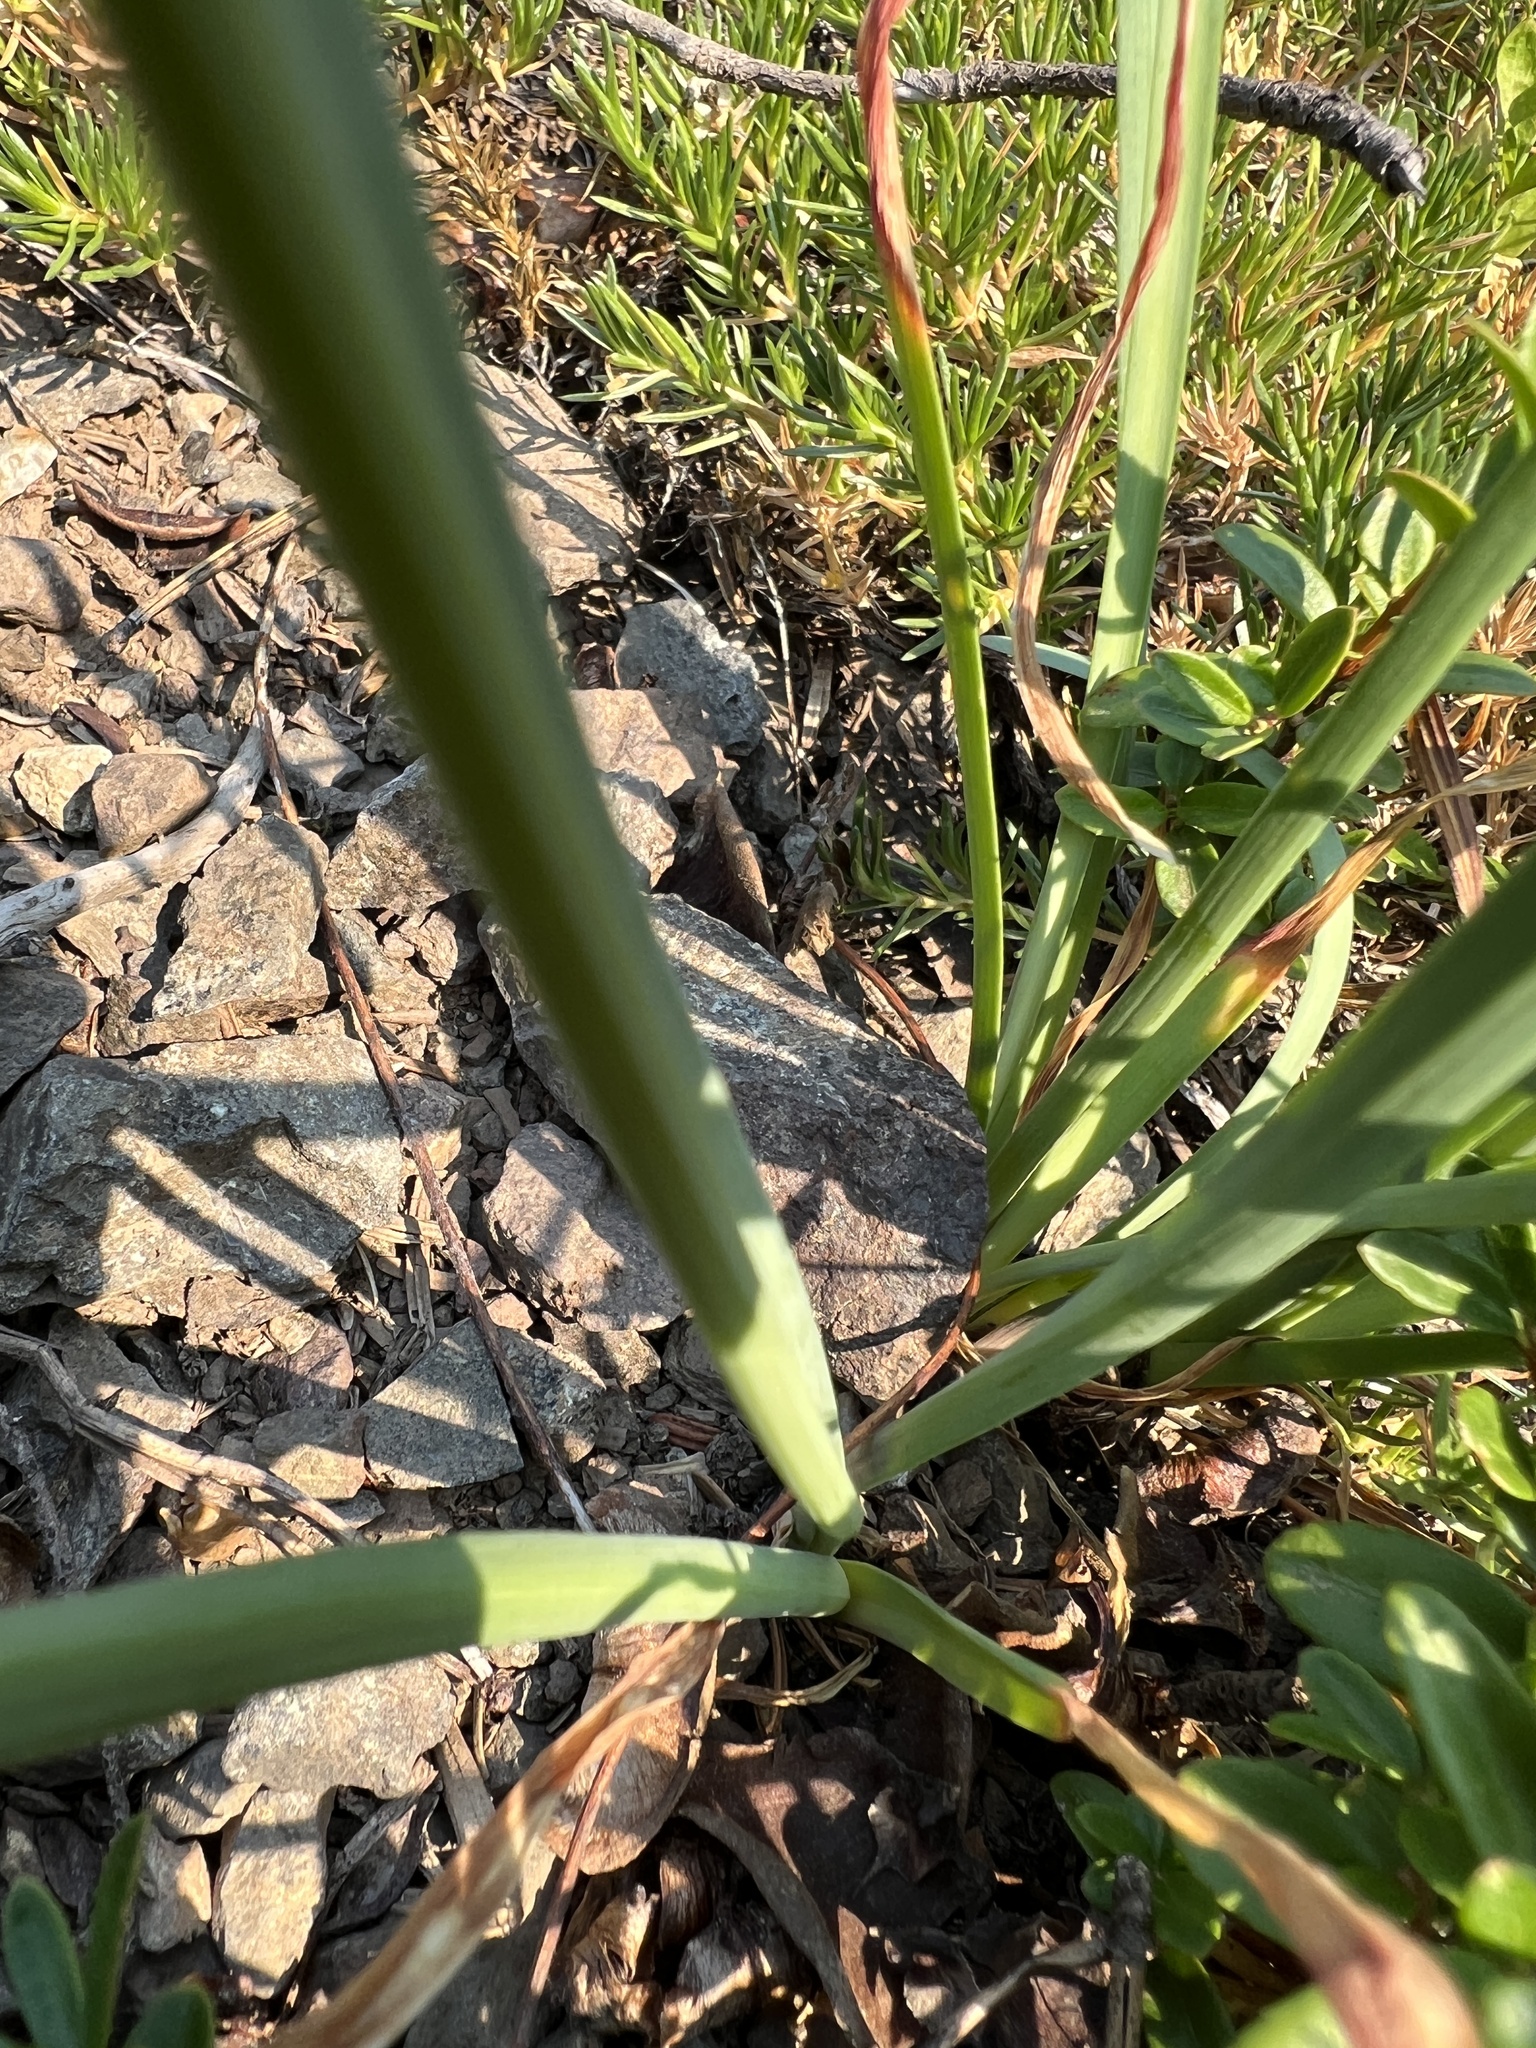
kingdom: Plantae
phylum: Tracheophyta
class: Liliopsida
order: Asparagales
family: Amaryllidaceae
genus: Allium
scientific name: Allium cernuum
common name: Nodding onion
